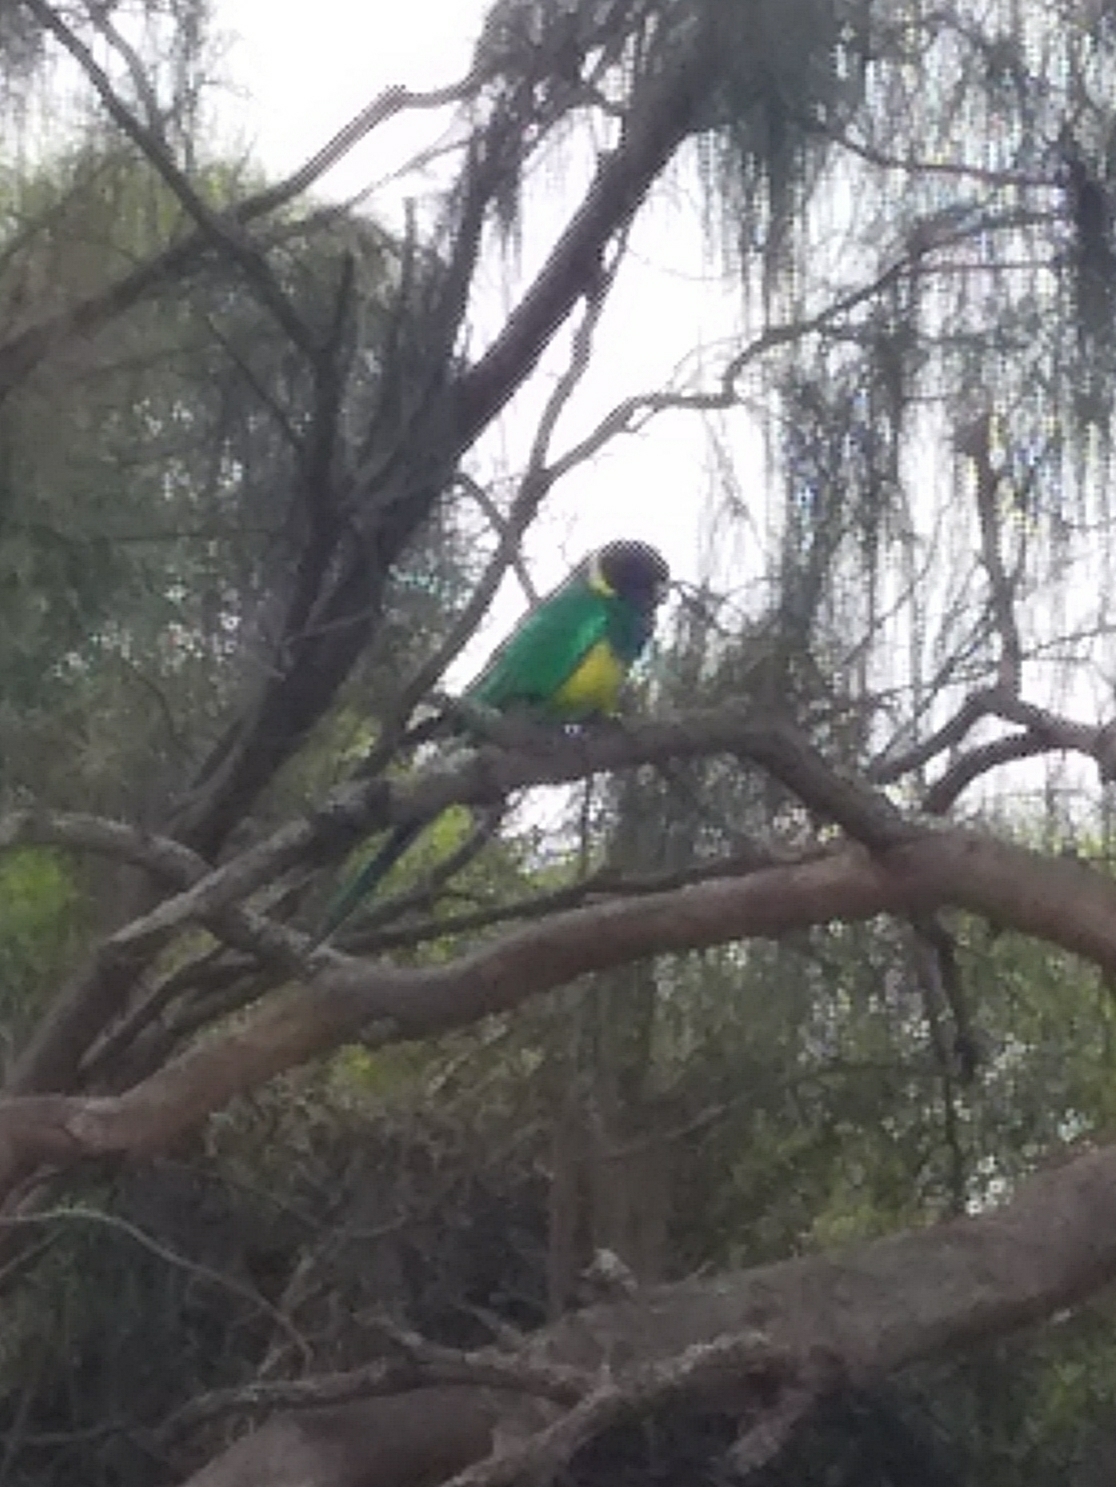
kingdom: Animalia
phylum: Chordata
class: Aves
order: Psittaciformes
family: Psittacidae
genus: Barnardius
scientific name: Barnardius zonarius
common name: Australian ringneck
